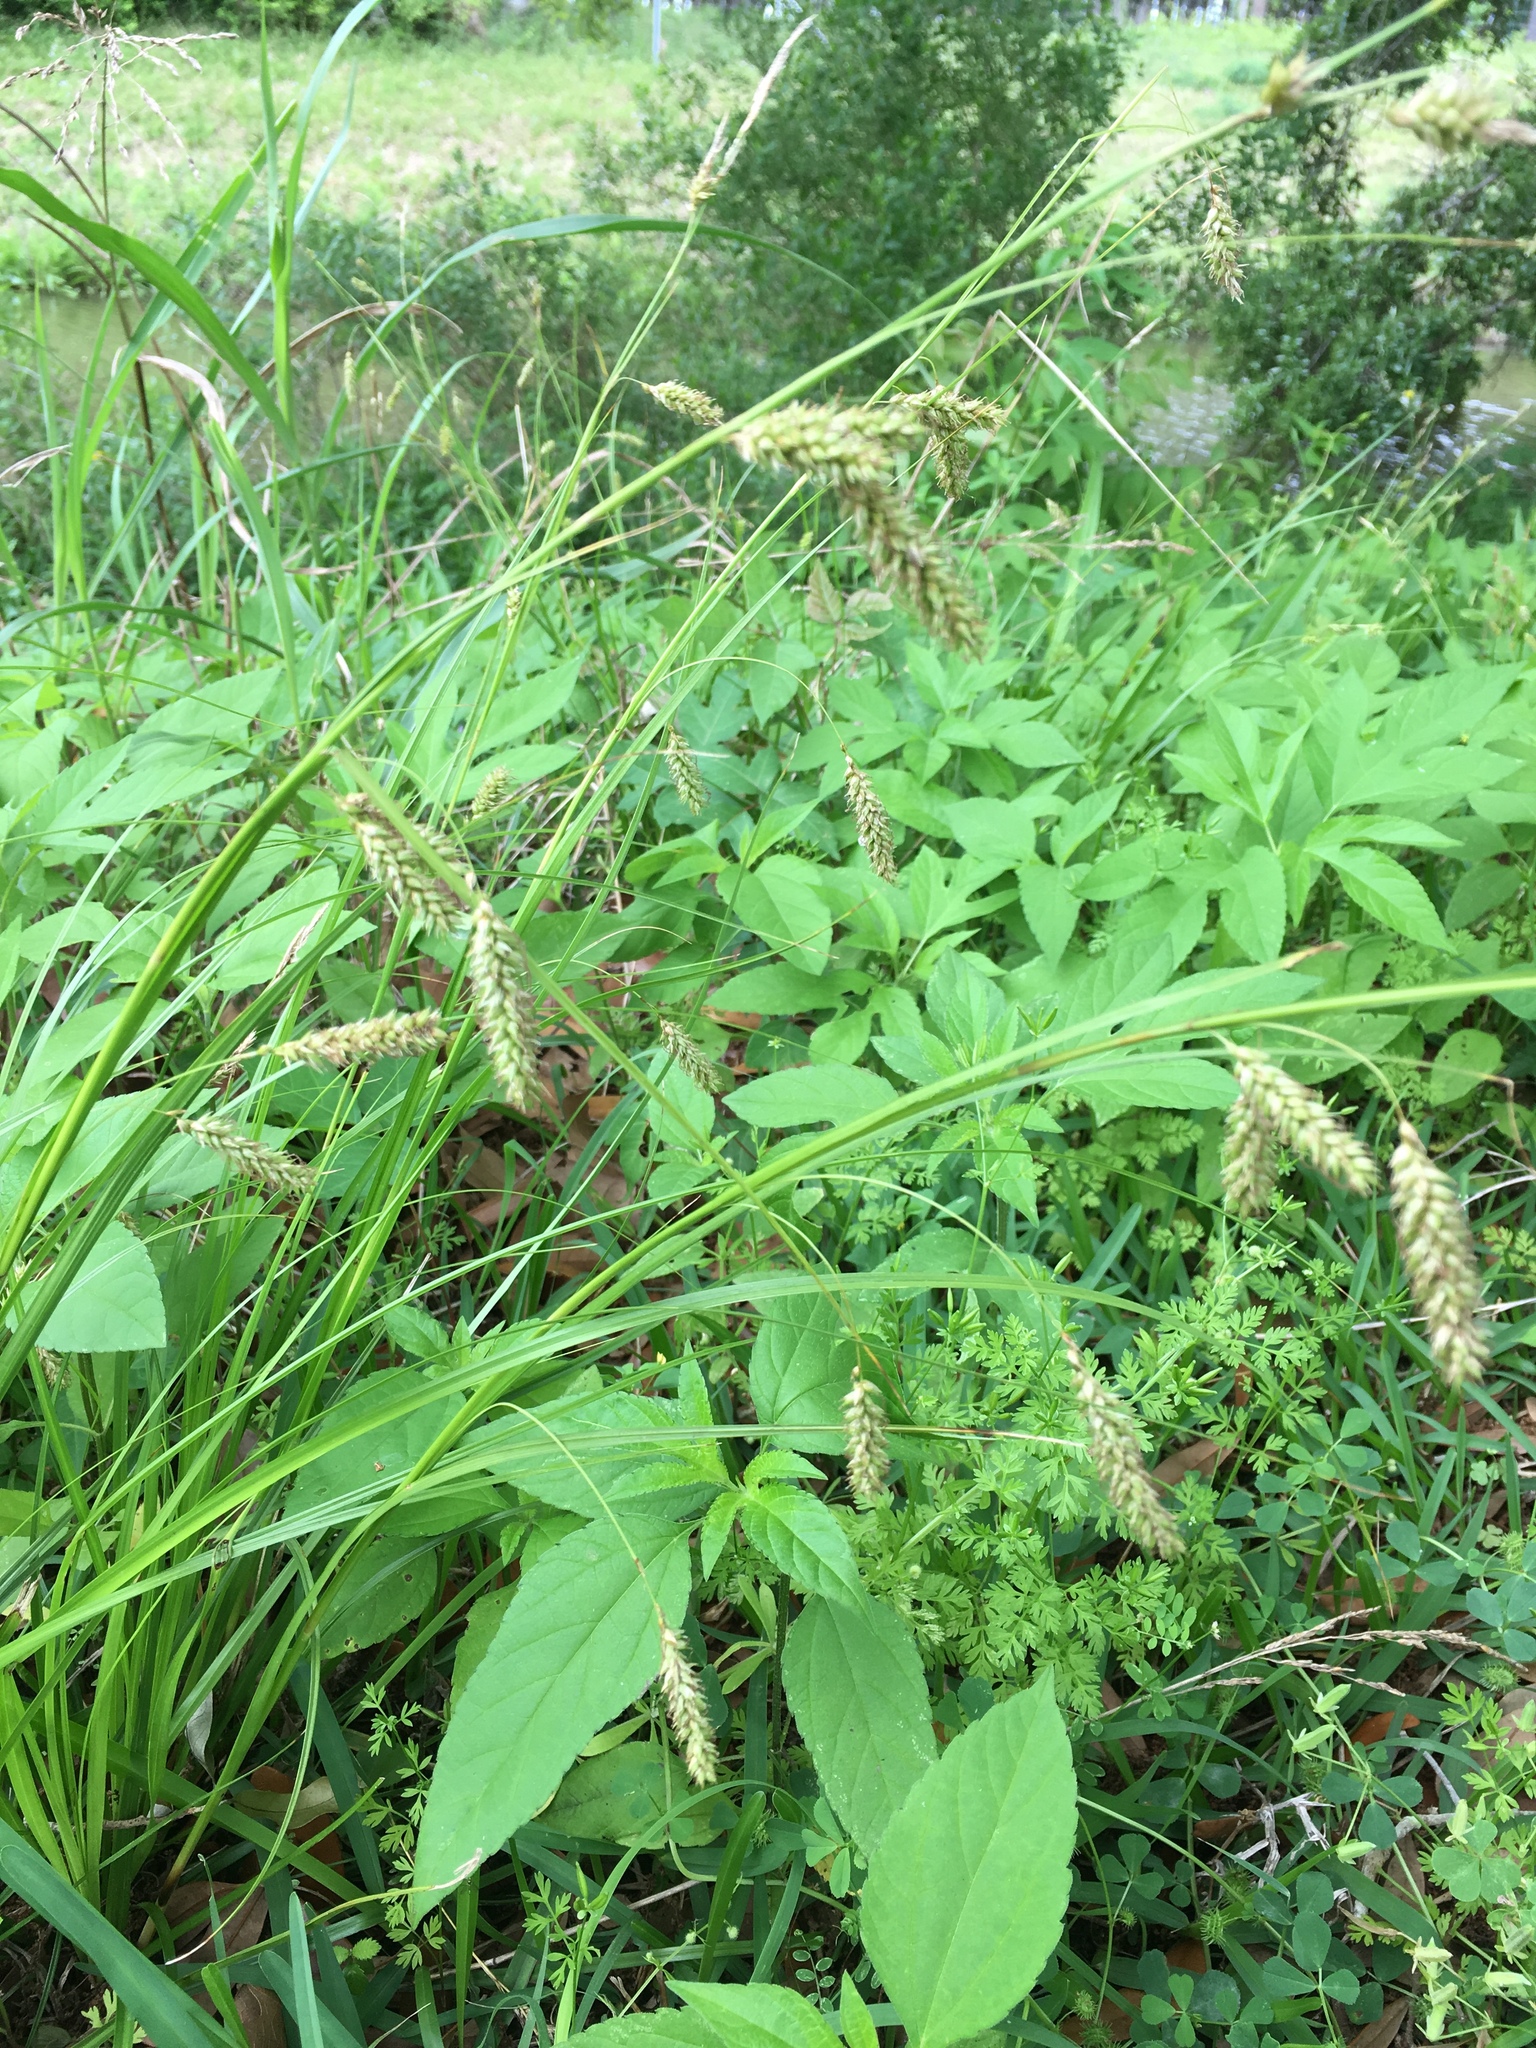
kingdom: Plantae
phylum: Tracheophyta
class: Liliopsida
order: Poales
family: Cyperaceae
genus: Carex
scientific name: Carex cherokeensis
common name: Cherokee sedge
